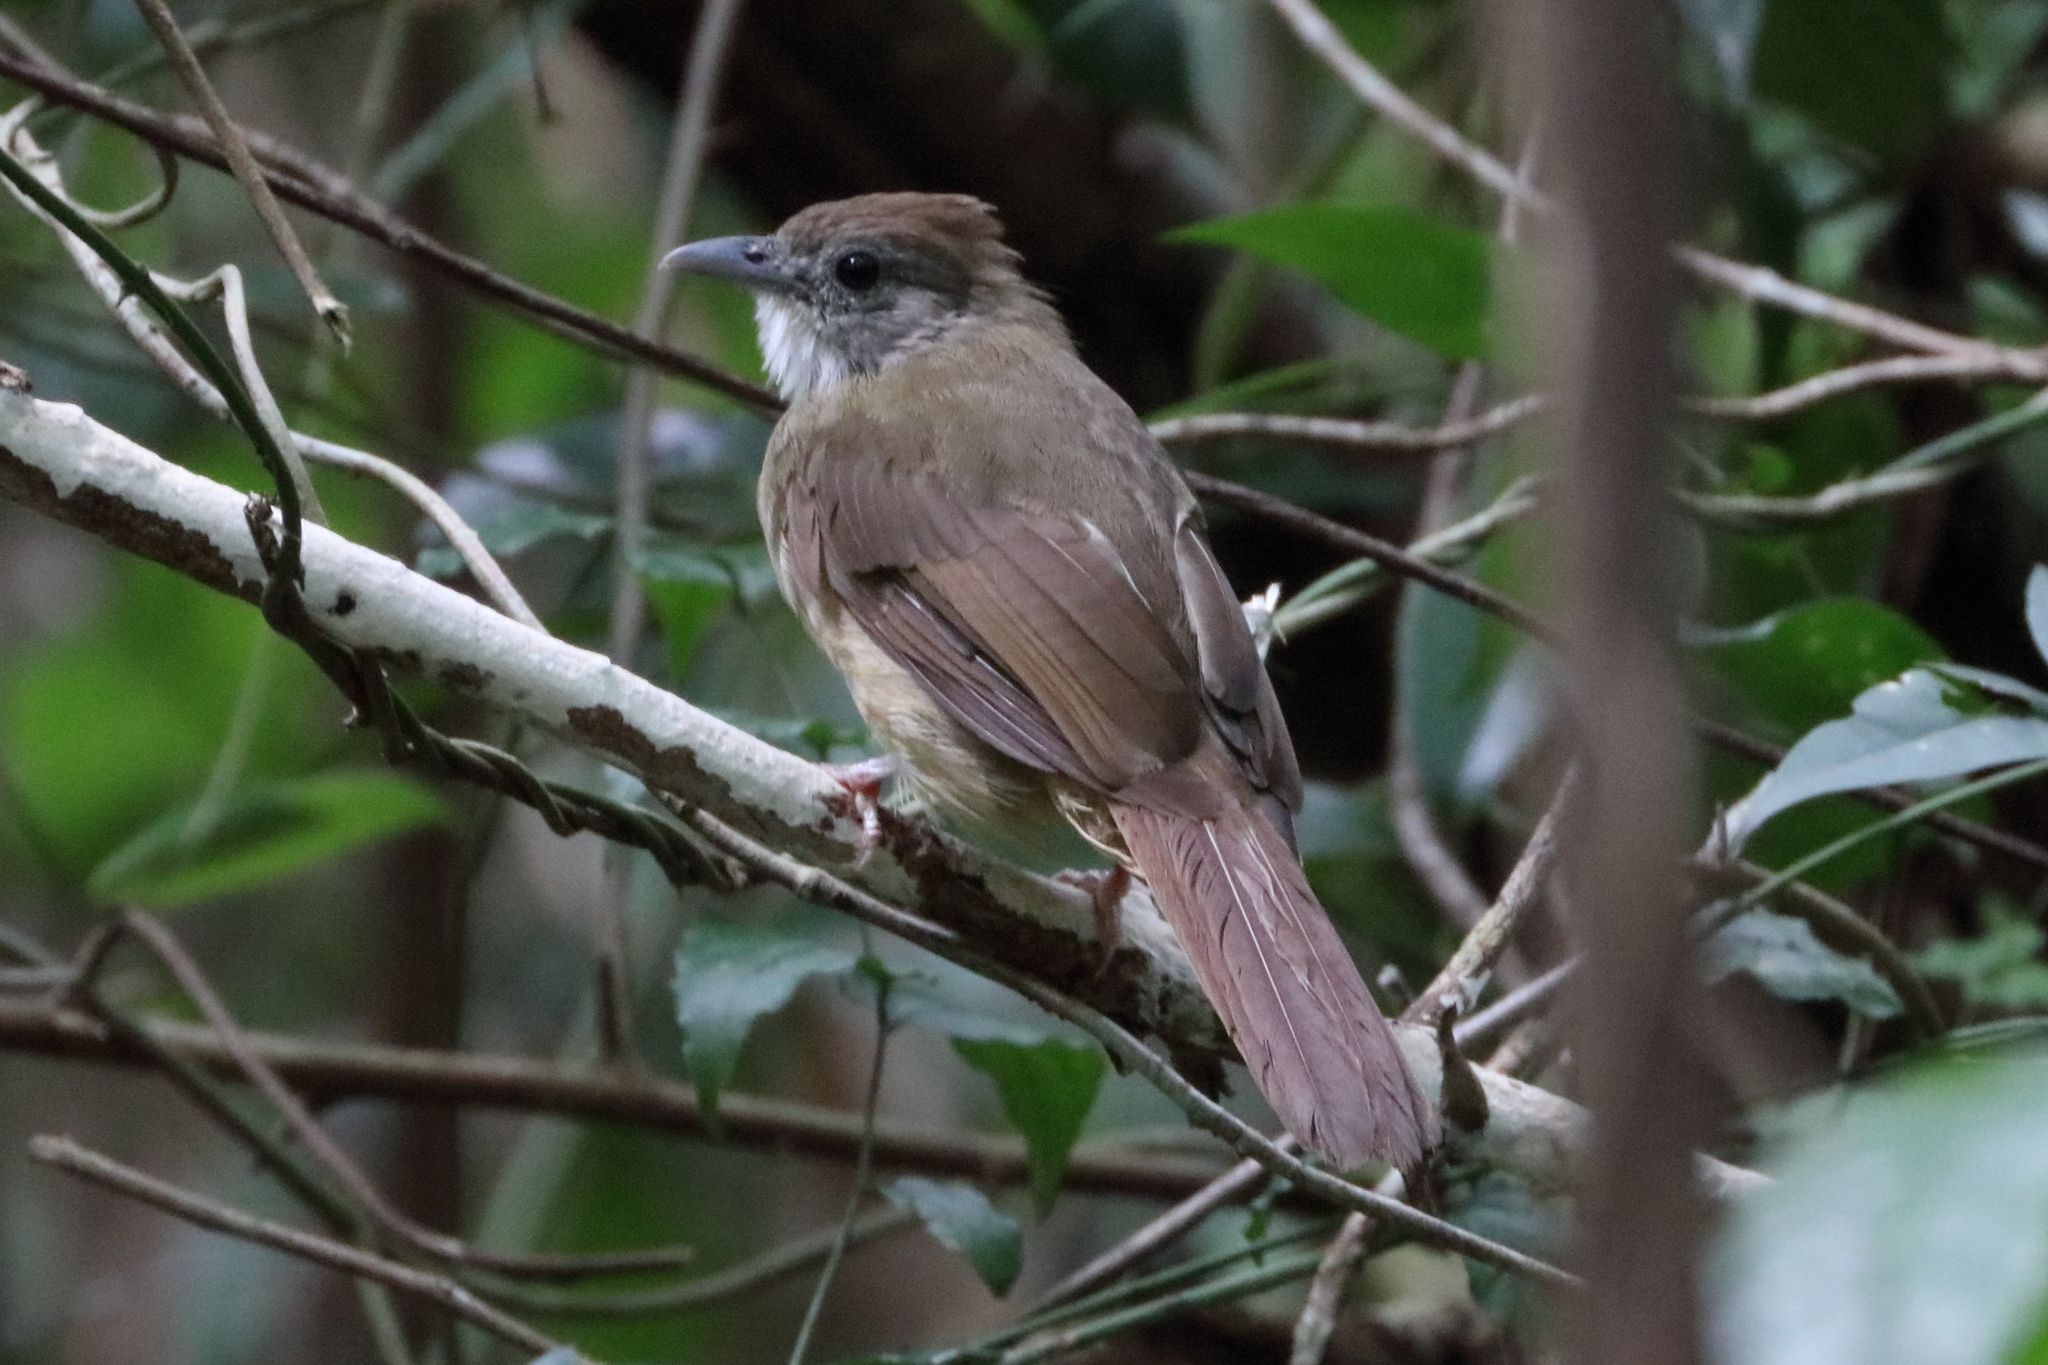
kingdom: Animalia
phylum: Chordata
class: Aves
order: Passeriformes
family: Pycnonotidae
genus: Alophoixus
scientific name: Alophoixus ochraceus
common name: Ochraceous bulbul
